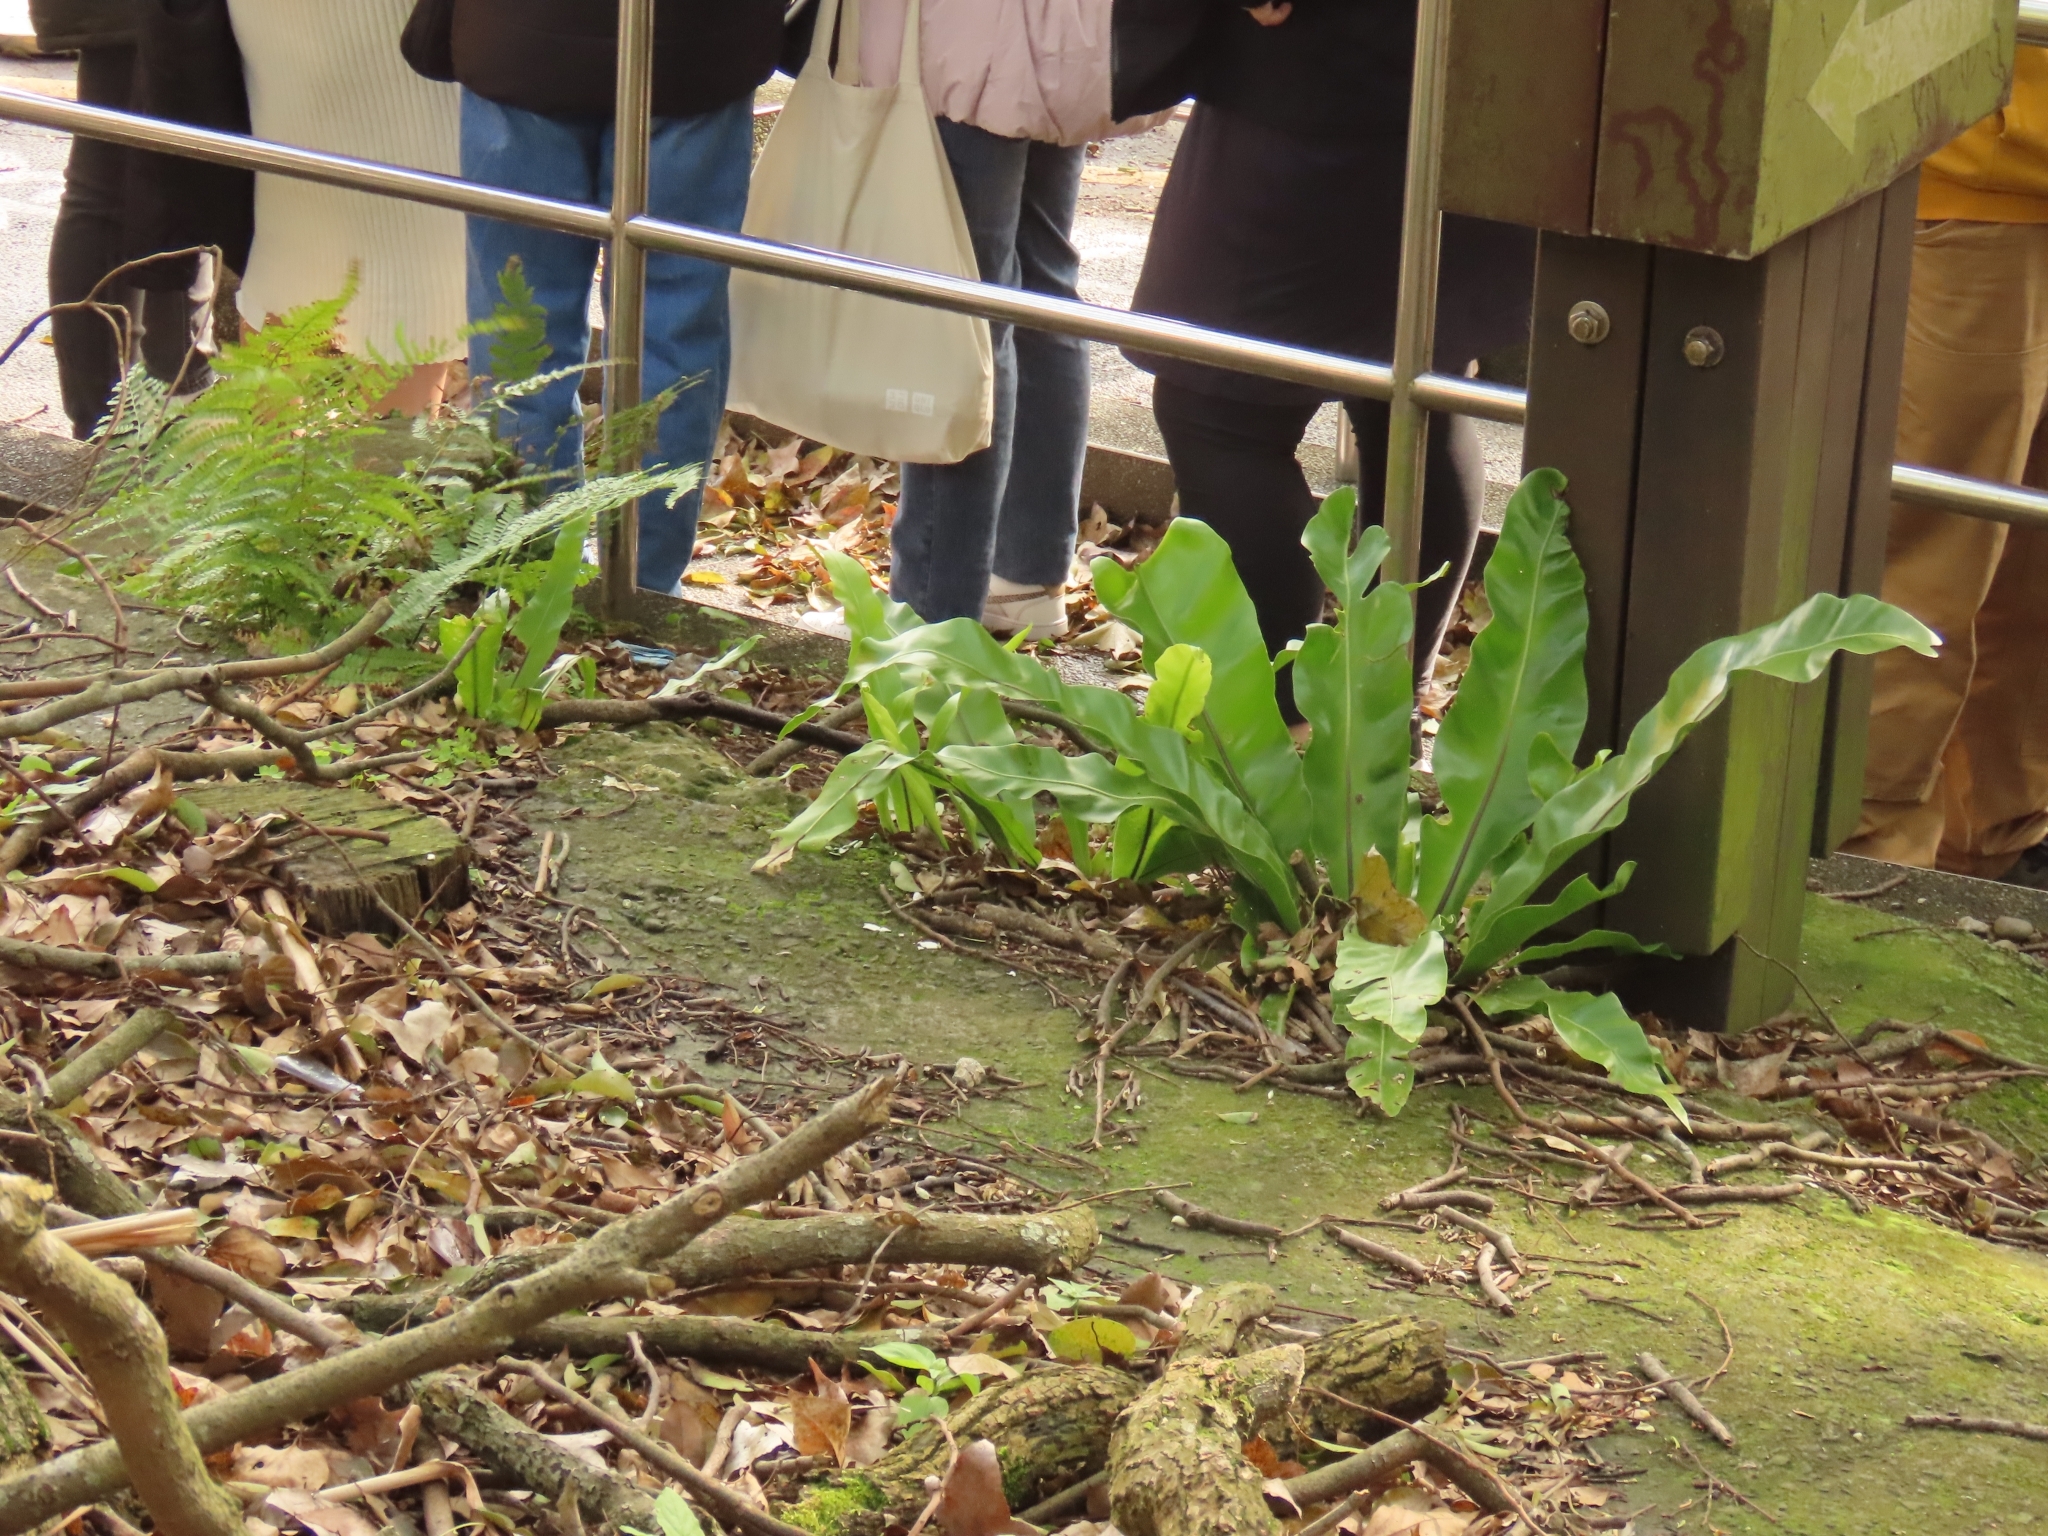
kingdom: Plantae
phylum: Tracheophyta
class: Polypodiopsida
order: Polypodiales
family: Aspleniaceae
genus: Asplenium
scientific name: Asplenium setoi
